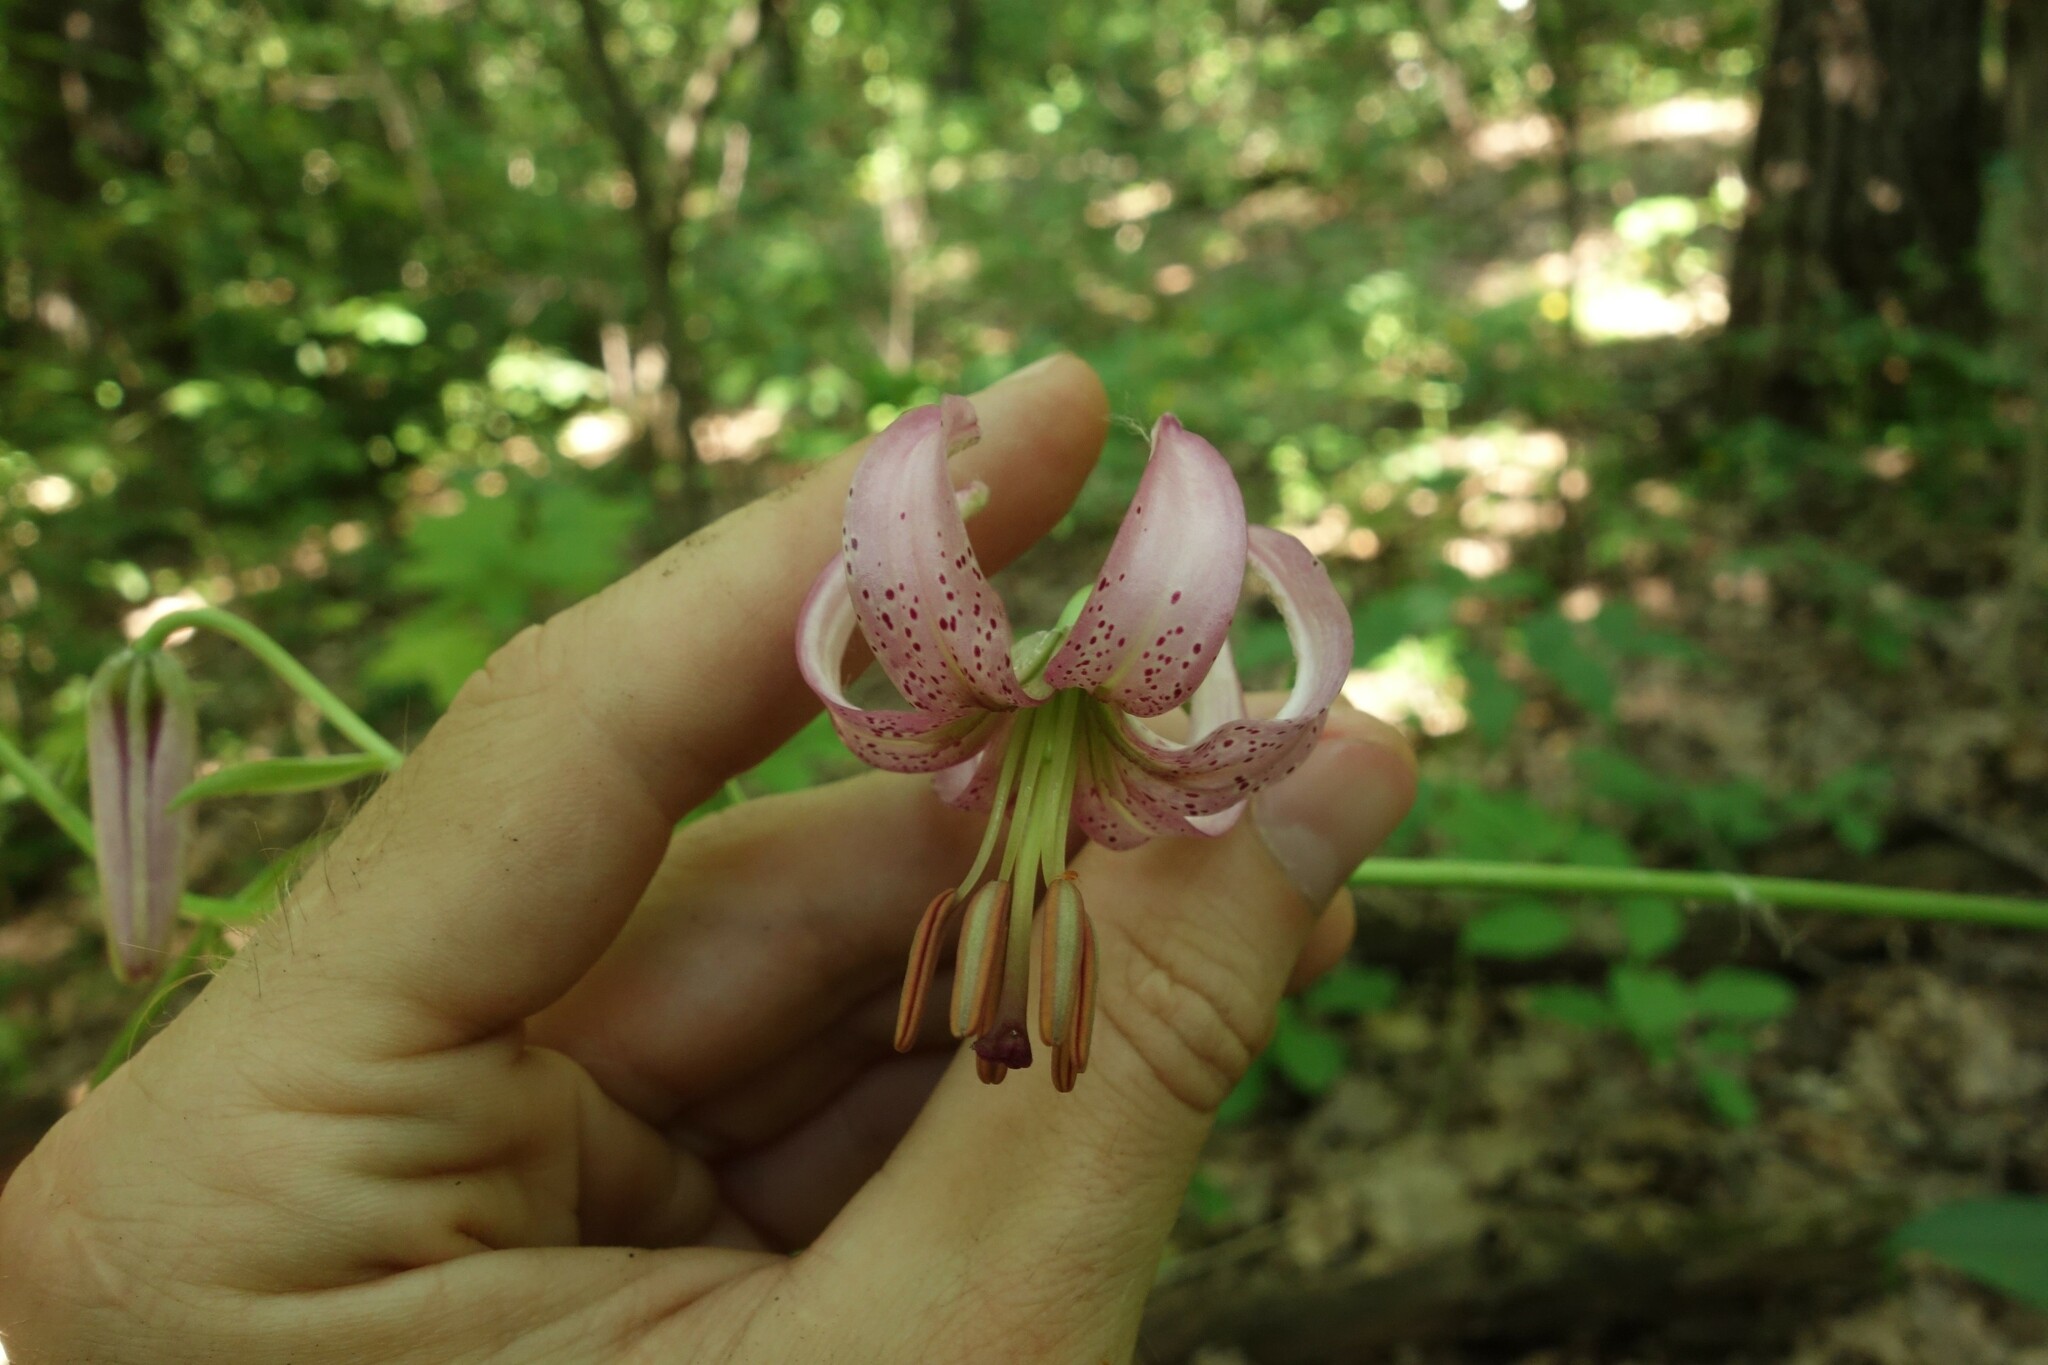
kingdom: Plantae
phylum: Tracheophyta
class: Liliopsida
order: Liliales
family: Liliaceae
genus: Lilium
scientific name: Lilium martagon
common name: Martagon lily
